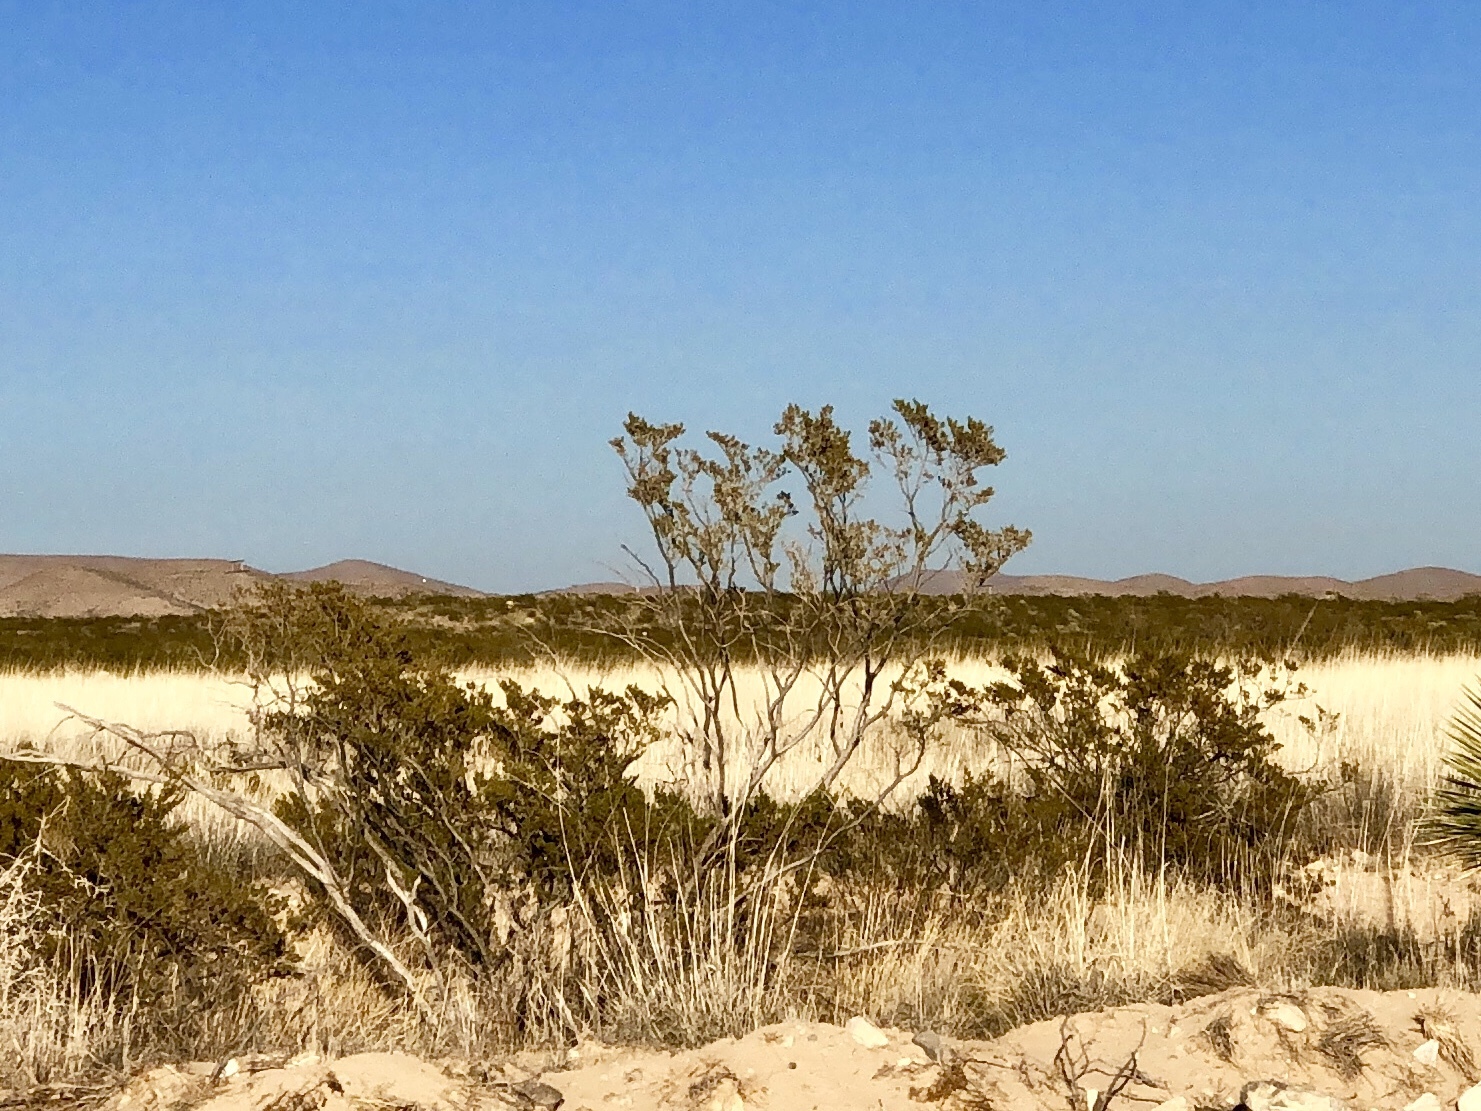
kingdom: Plantae
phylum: Tracheophyta
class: Magnoliopsida
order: Zygophyllales
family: Zygophyllaceae
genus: Larrea
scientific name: Larrea tridentata
